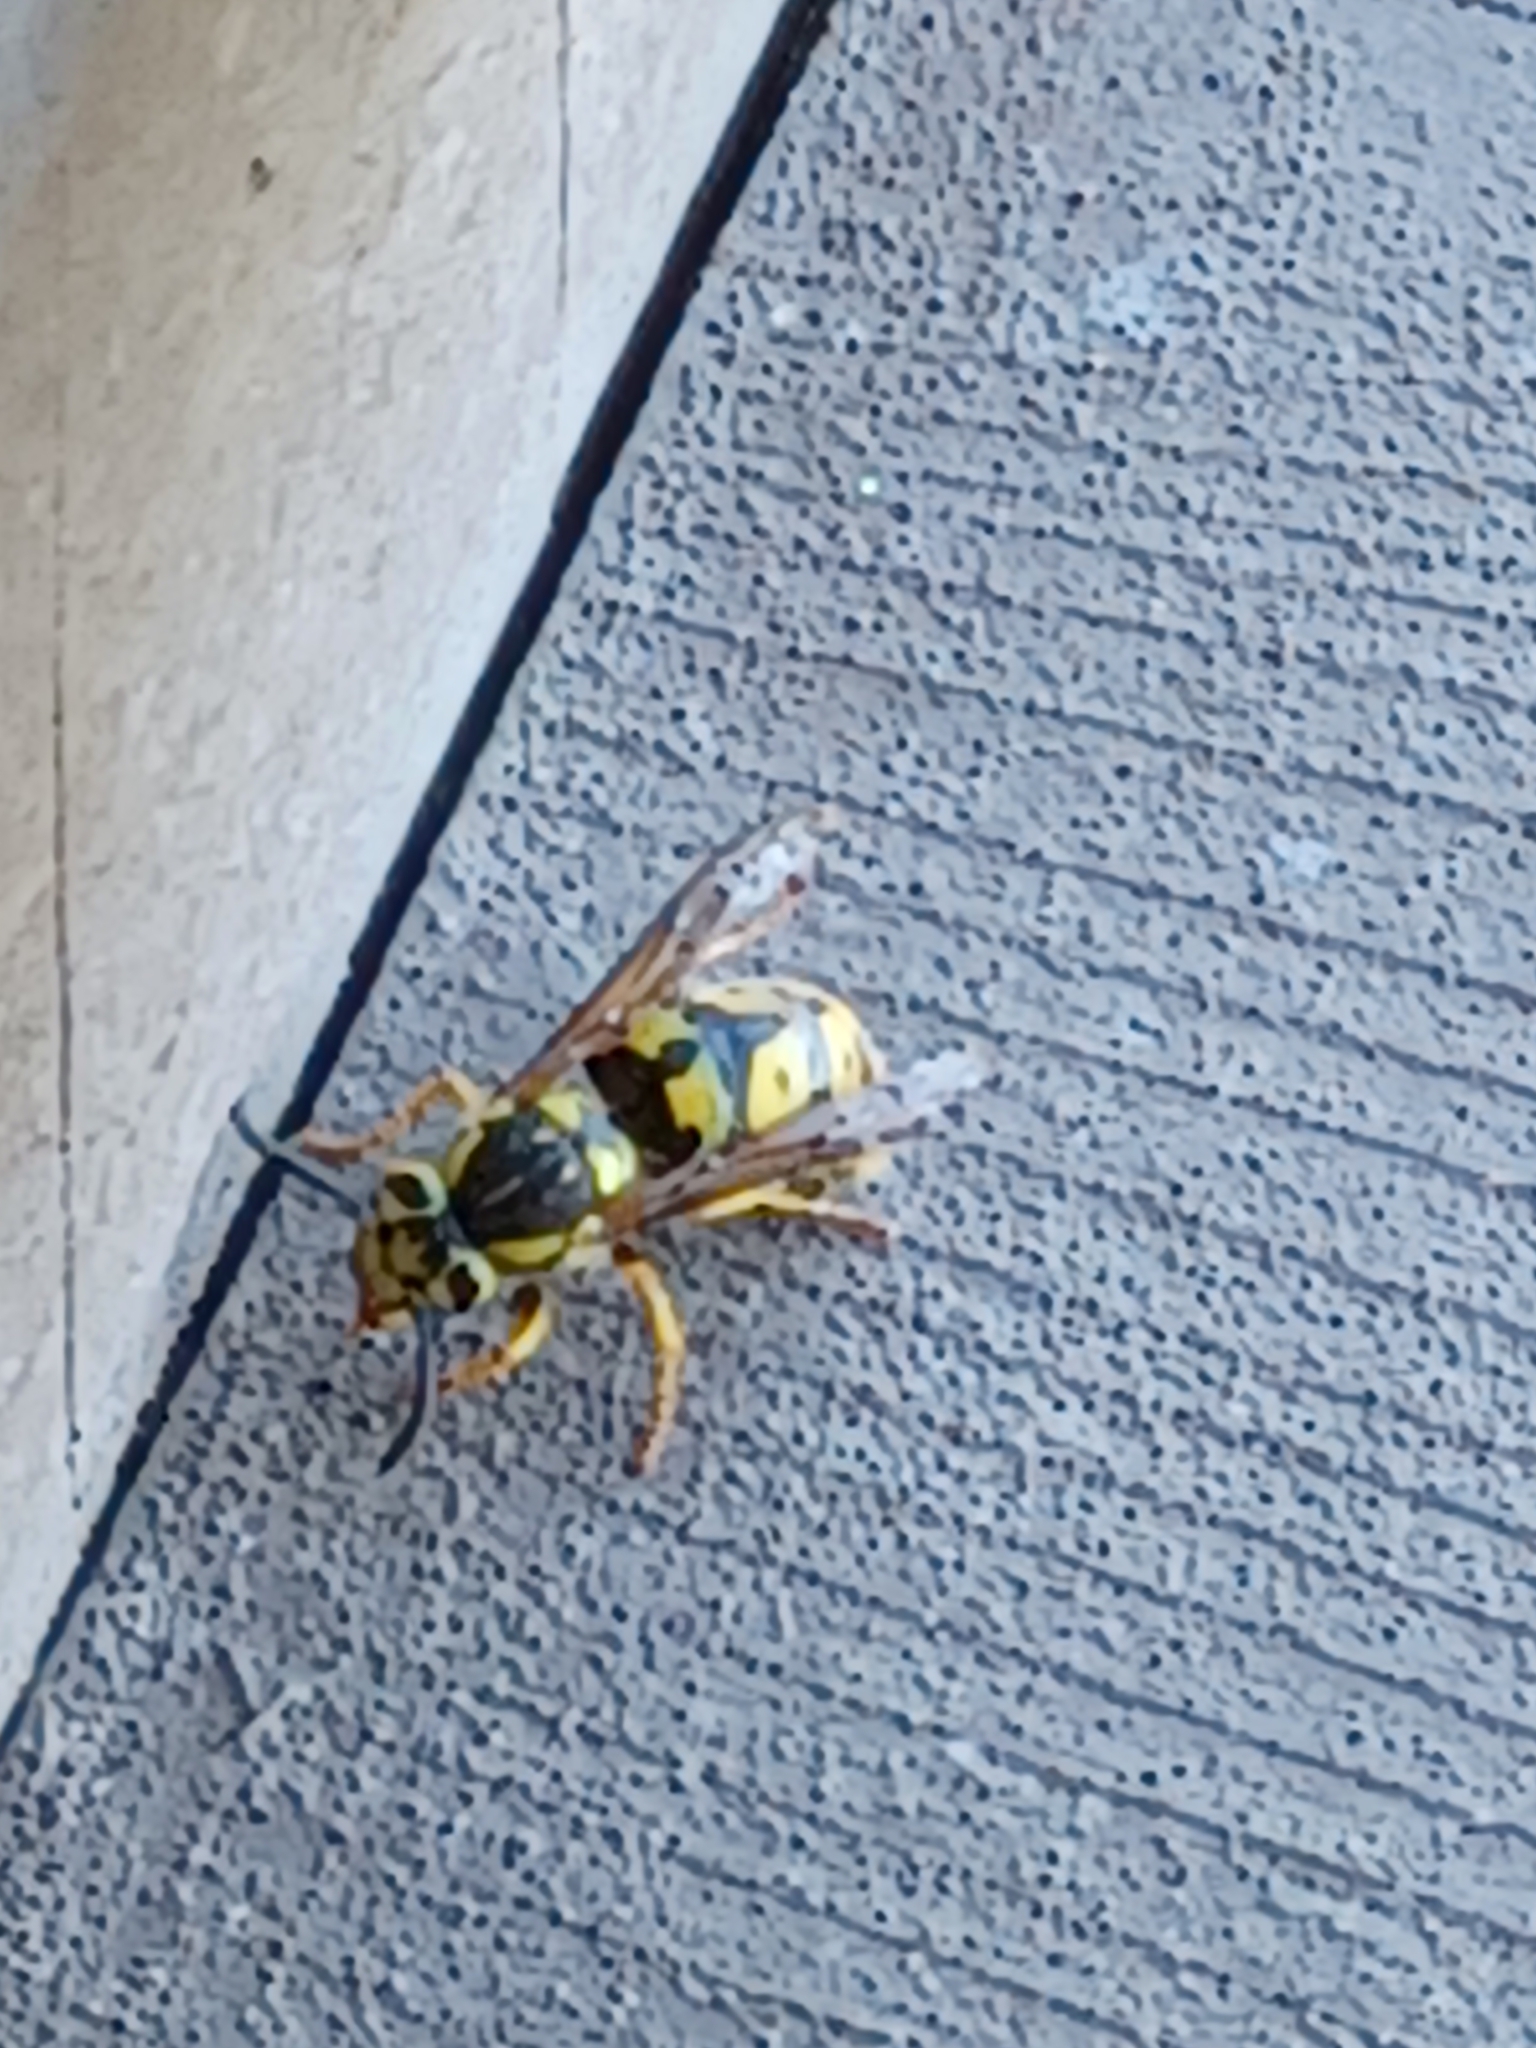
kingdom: Animalia
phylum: Arthropoda
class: Insecta
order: Hymenoptera
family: Vespidae
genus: Vespula
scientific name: Vespula pensylvanica
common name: Western yellowjacket
